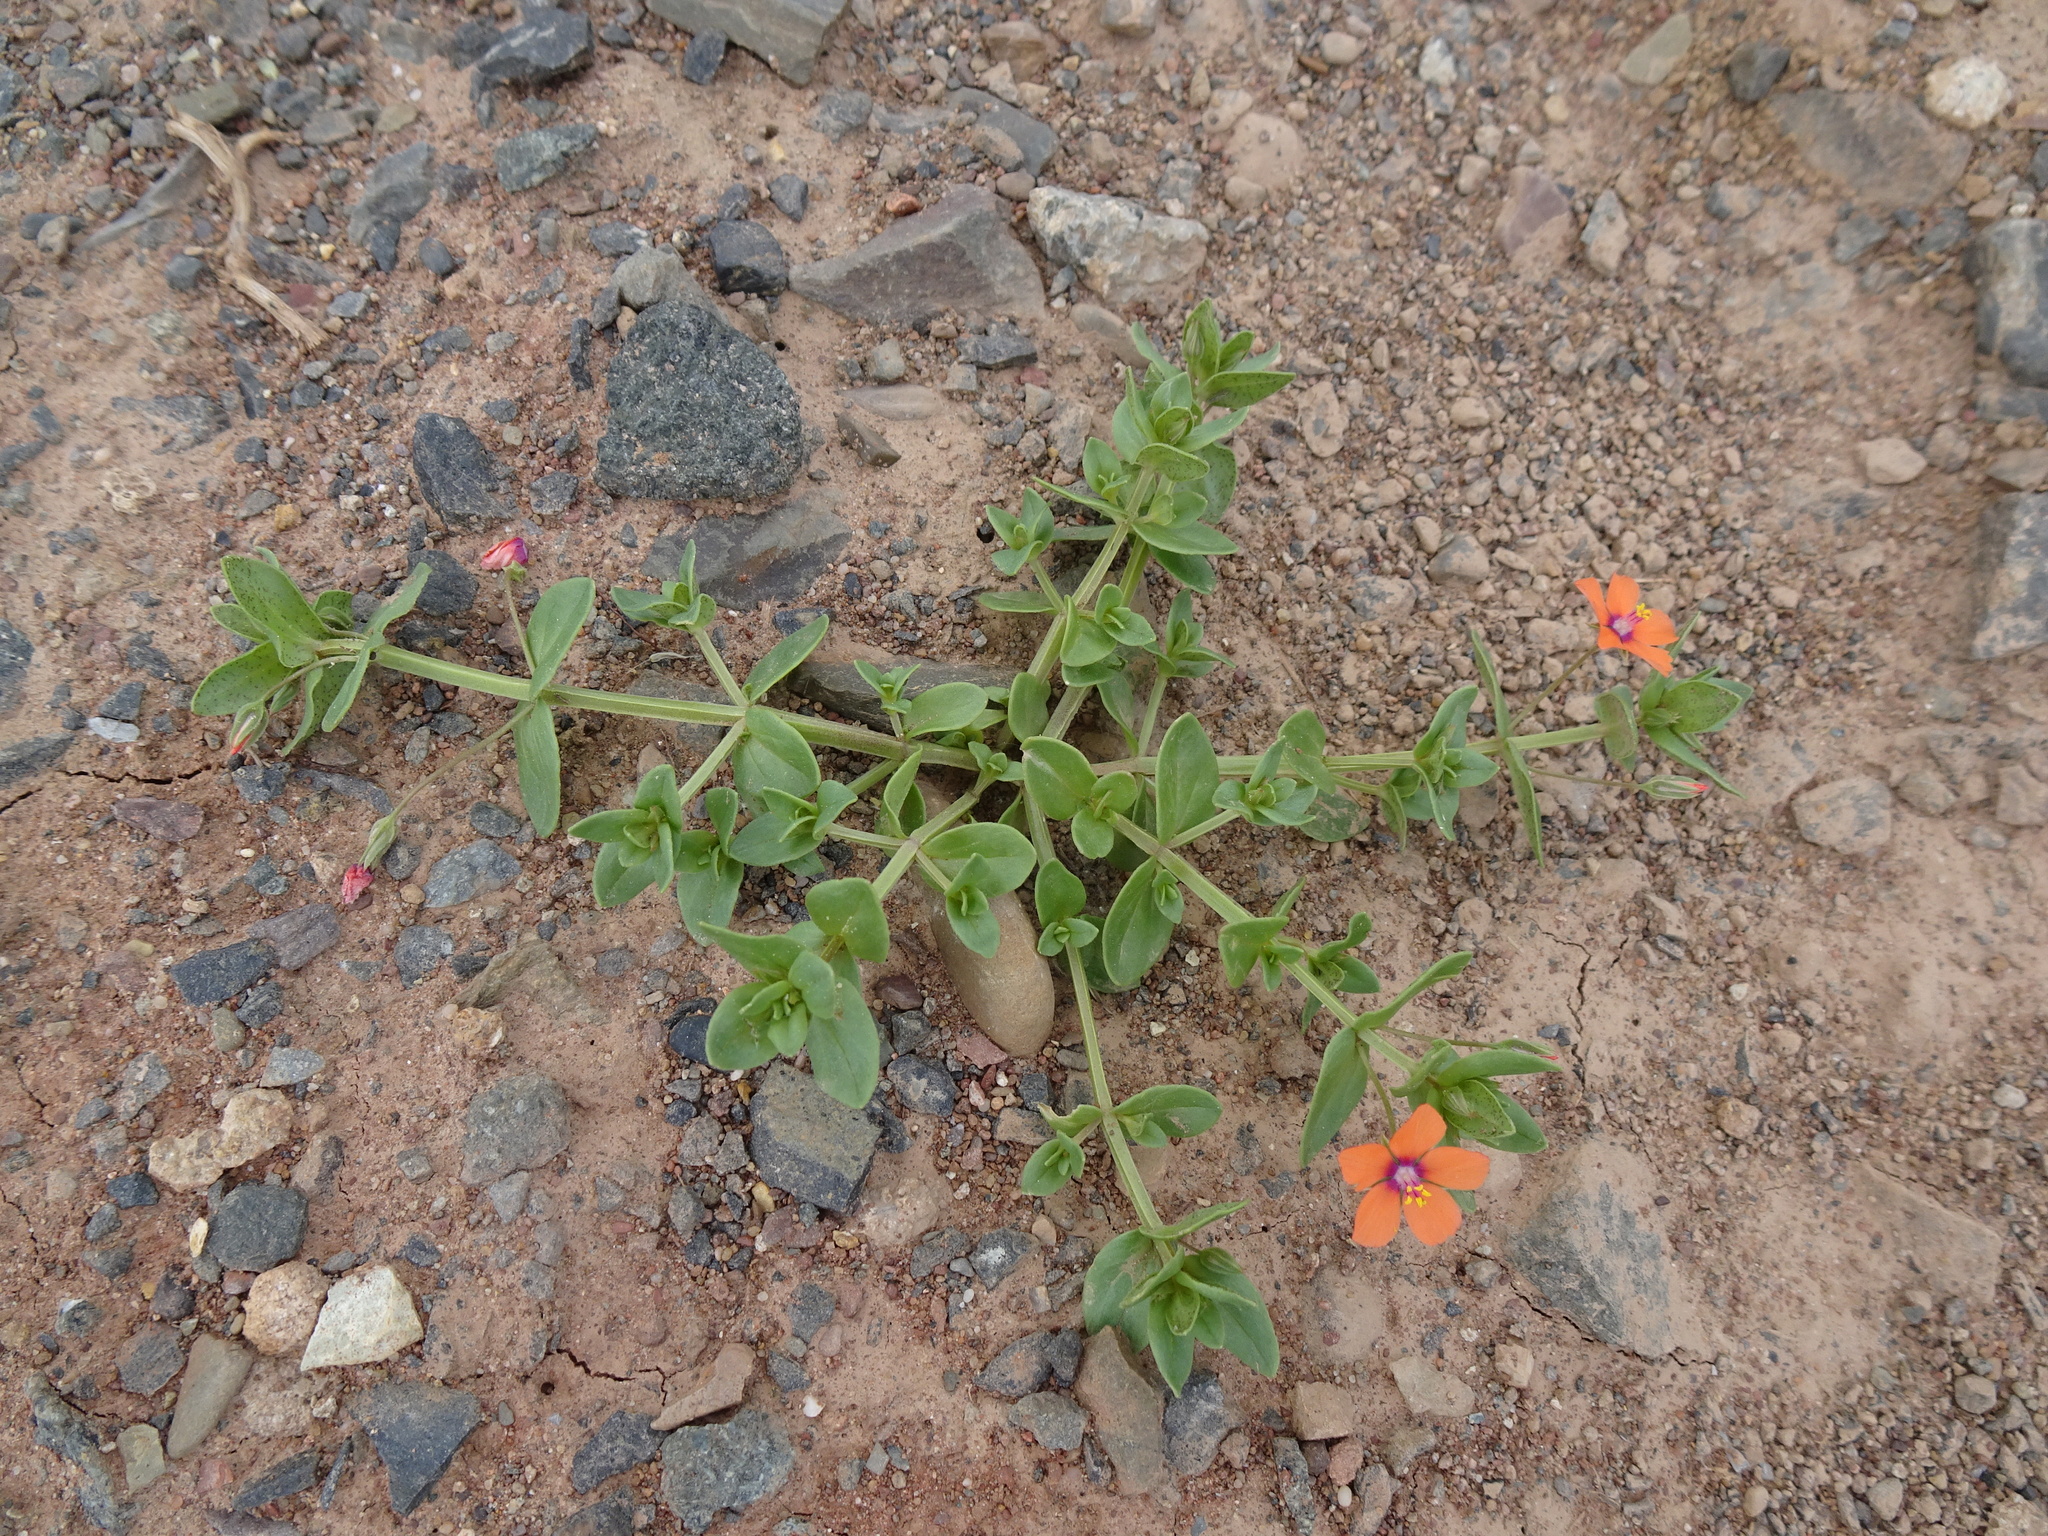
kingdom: Plantae
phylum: Tracheophyta
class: Magnoliopsida
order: Ericales
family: Primulaceae
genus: Lysimachia
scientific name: Lysimachia arvensis
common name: Scarlet pimpernel
